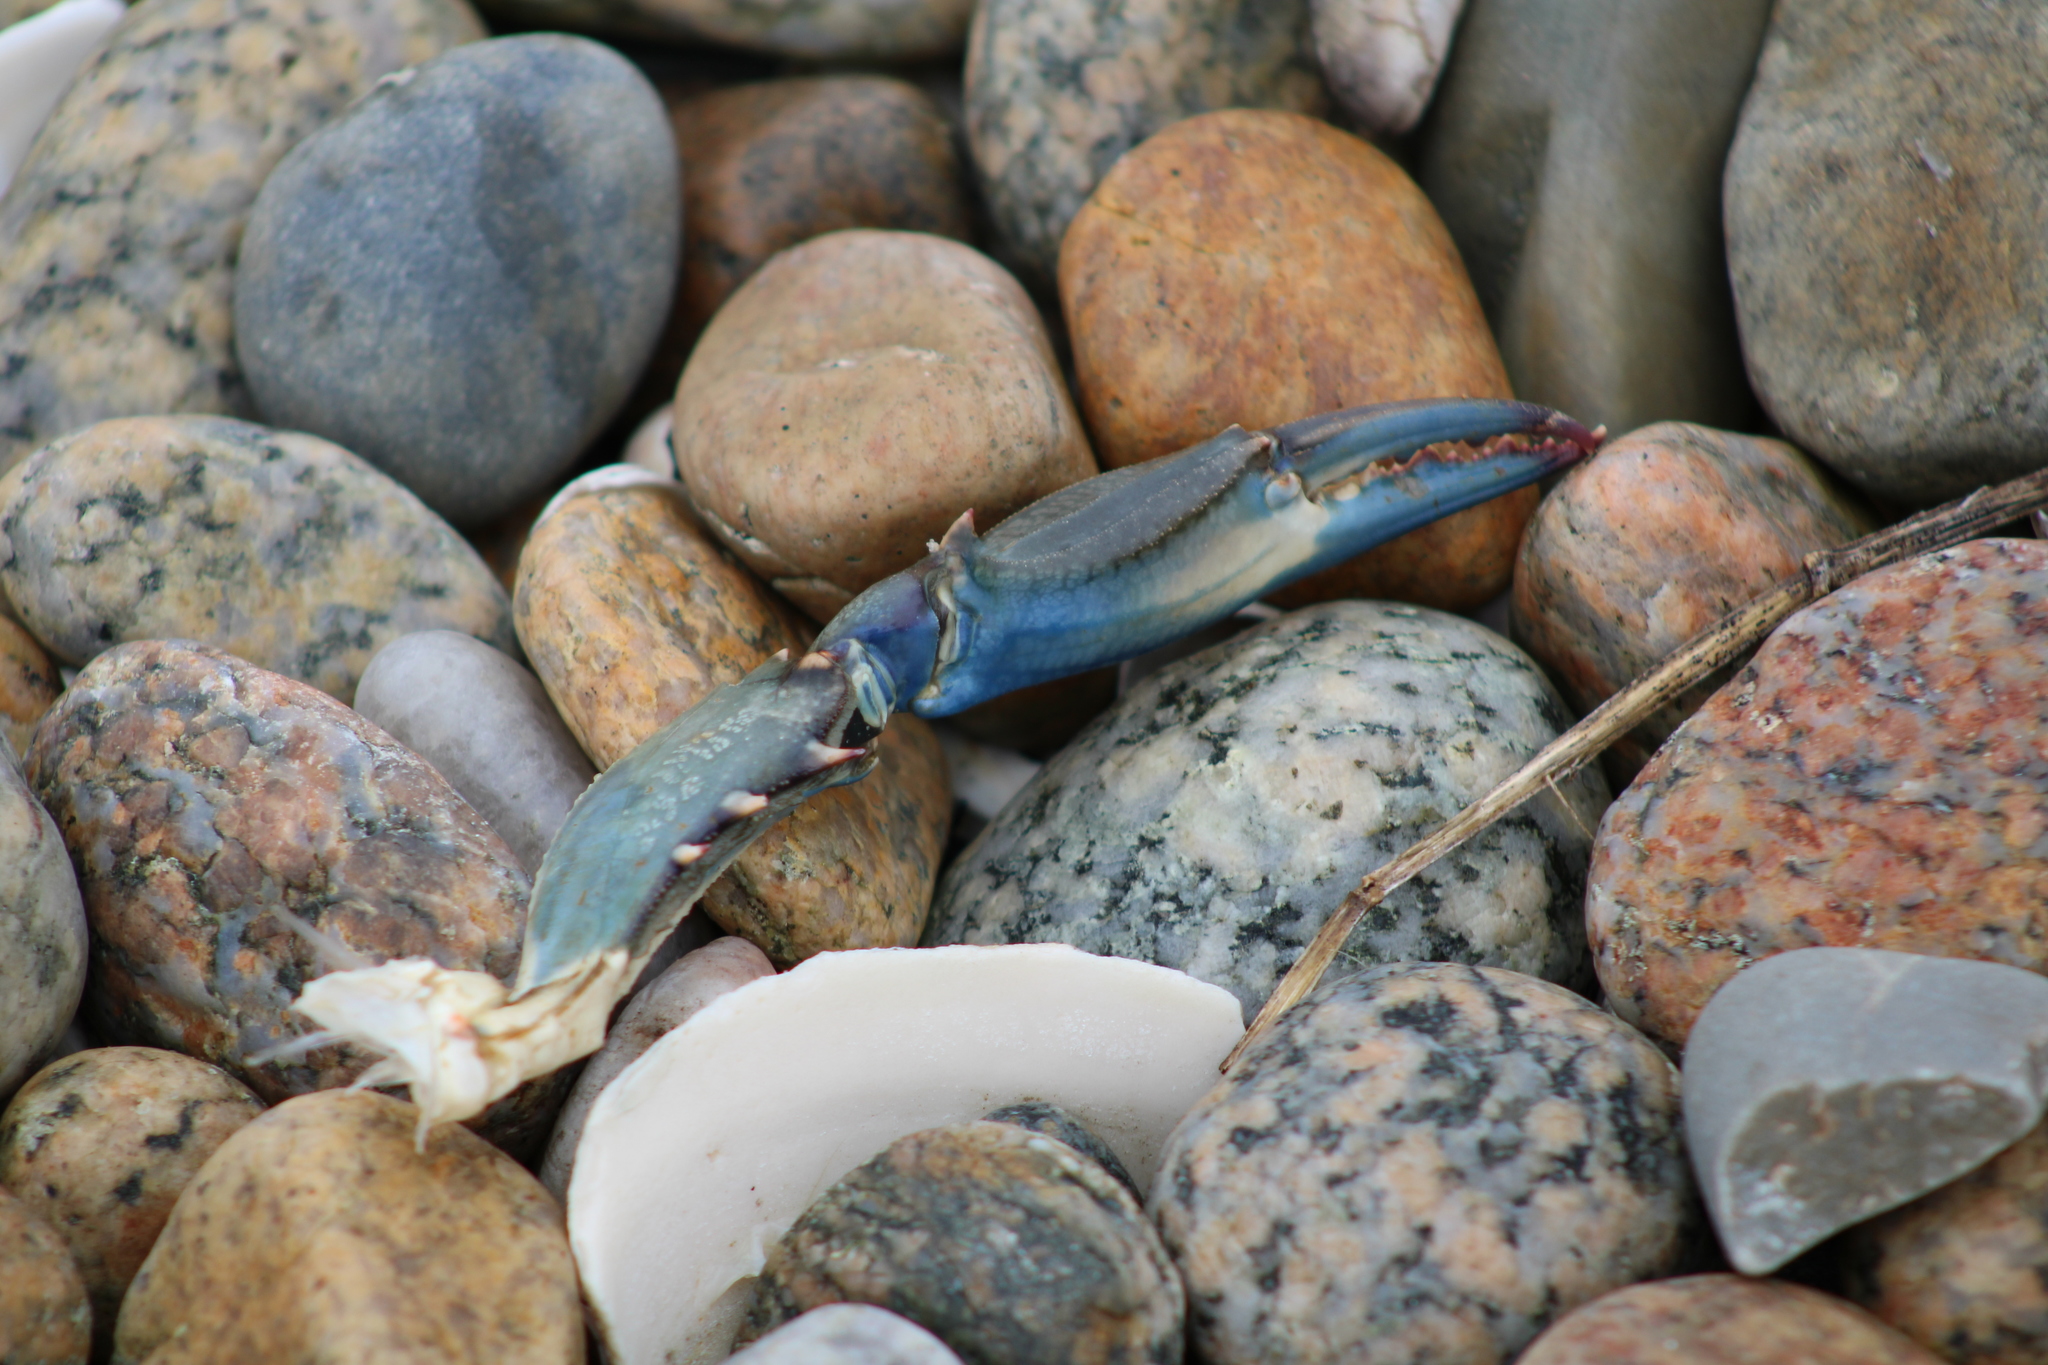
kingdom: Animalia
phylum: Arthropoda
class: Malacostraca
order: Decapoda
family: Portunidae
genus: Callinectes
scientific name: Callinectes sapidus
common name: Blue crab
